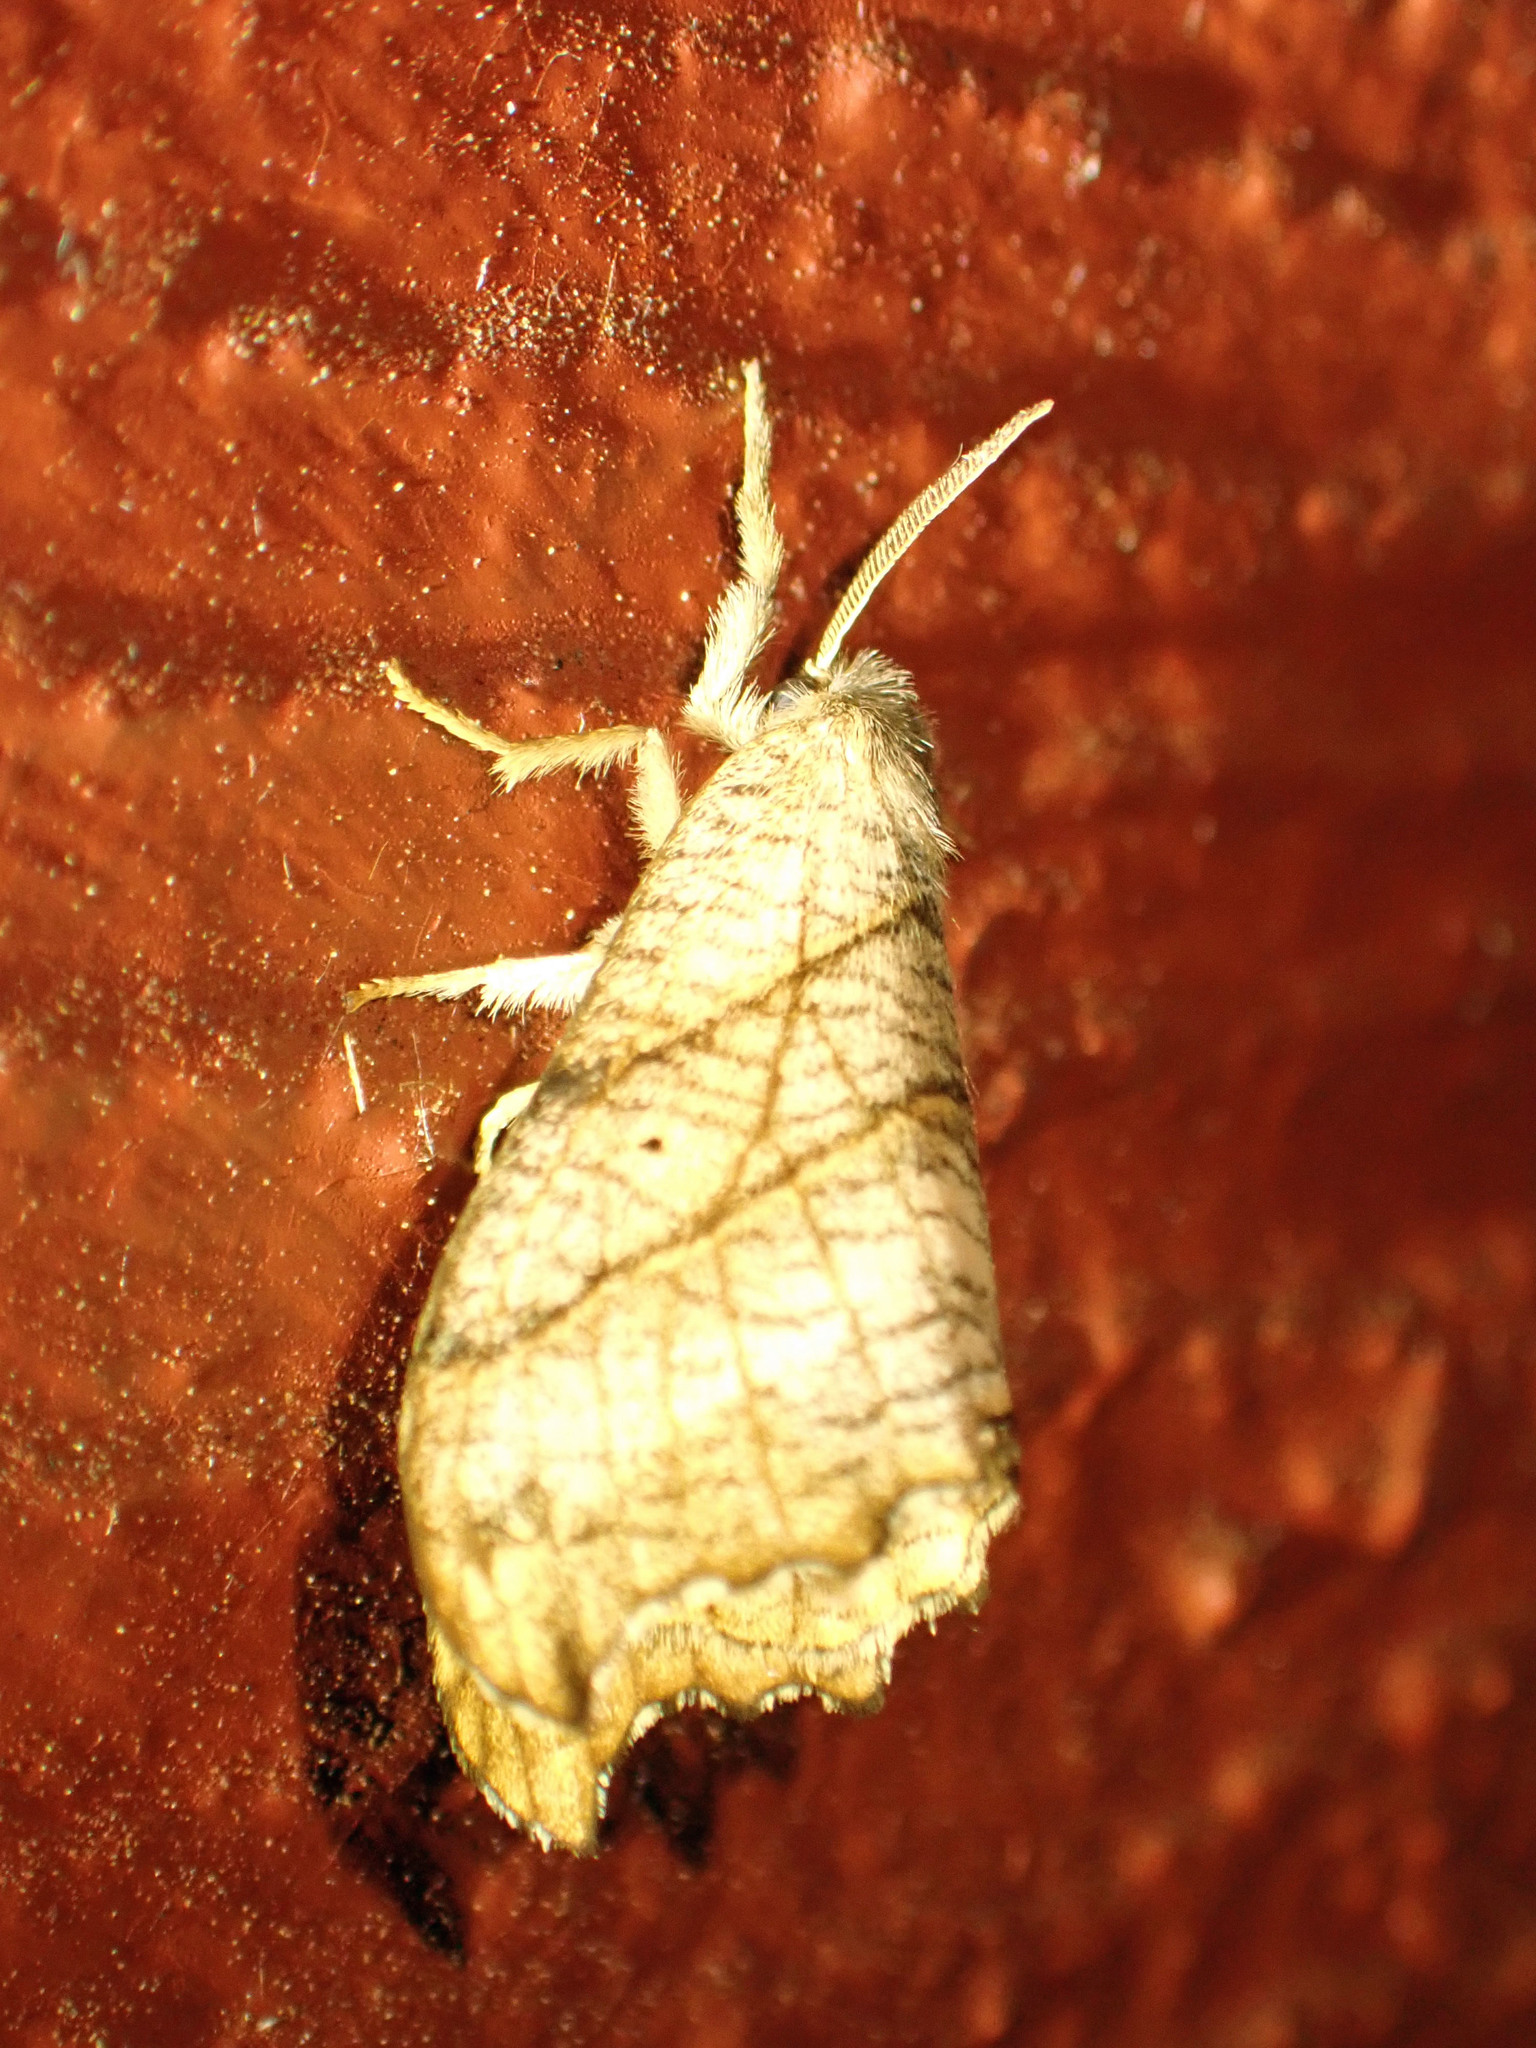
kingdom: Animalia
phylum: Arthropoda
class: Insecta
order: Lepidoptera
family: Drepanidae
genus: Falcaria
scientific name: Falcaria bilineata
